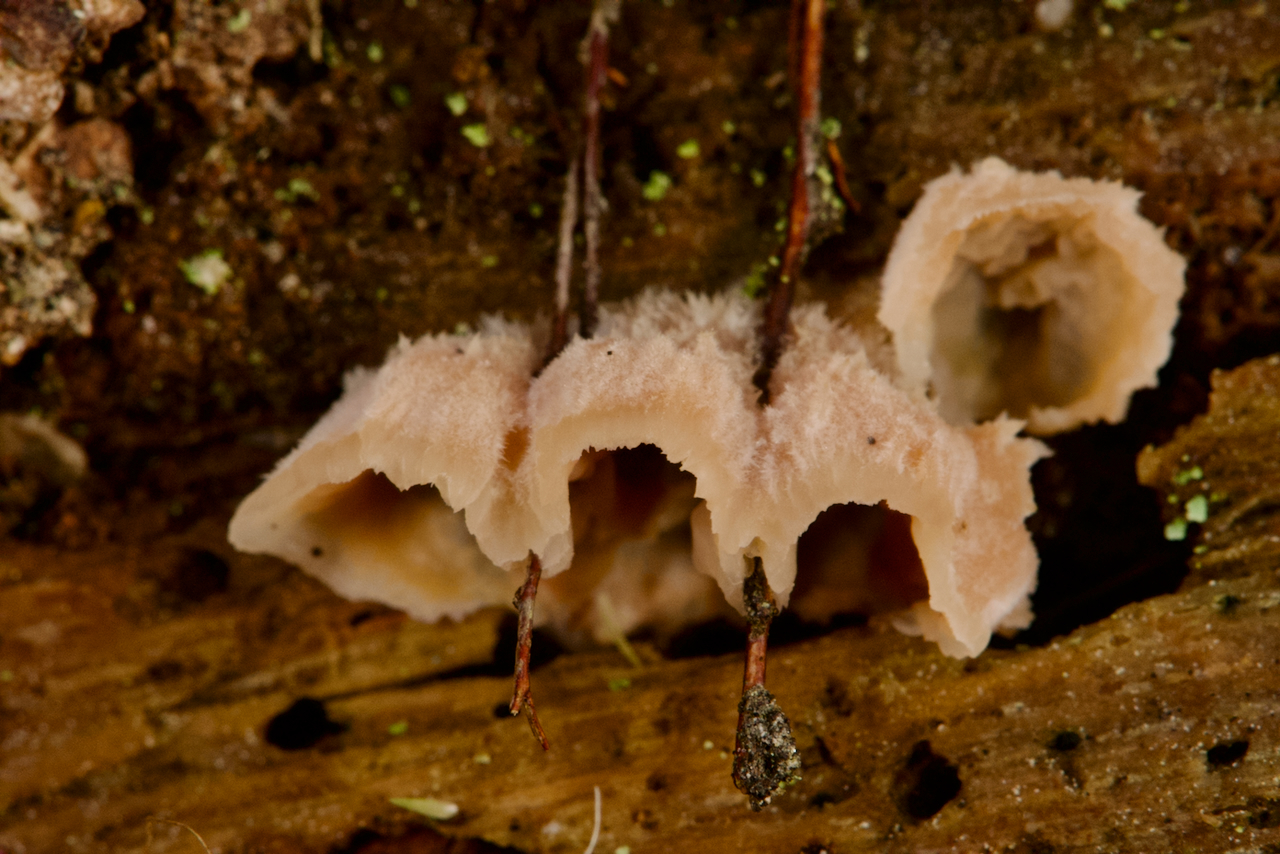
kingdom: Fungi
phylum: Basidiomycota
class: Agaricomycetes
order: Polyporales
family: Meruliaceae
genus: Phlebia
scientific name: Phlebia tremellosa
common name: Jelly rot
